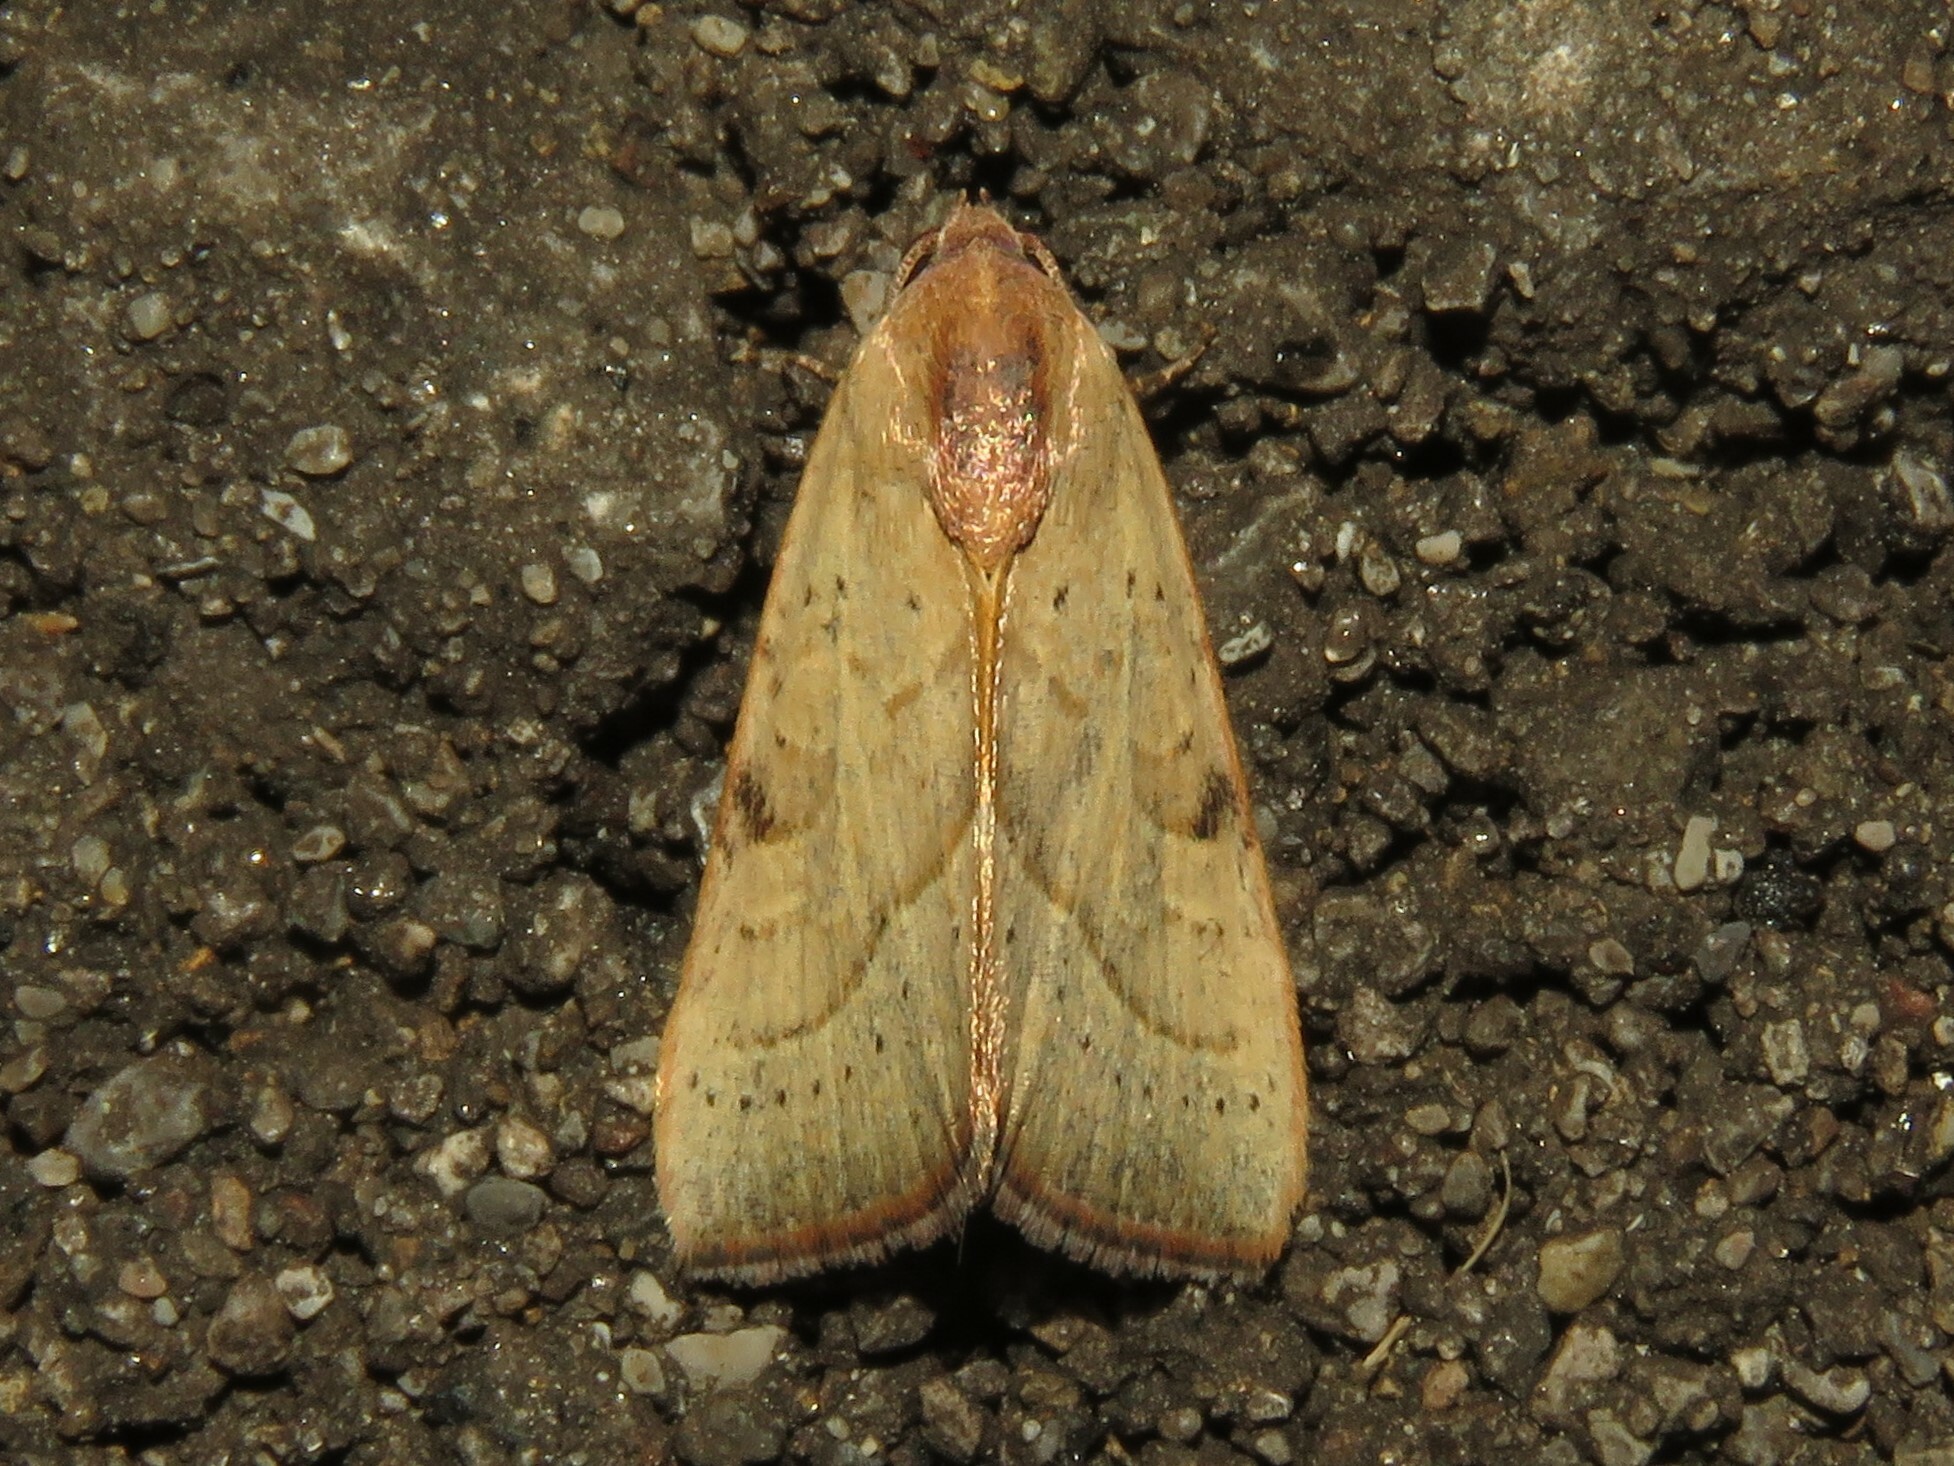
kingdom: Animalia
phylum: Arthropoda
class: Insecta
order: Lepidoptera
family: Noctuidae
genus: Galgula
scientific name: Galgula partita
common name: Wedgeling
